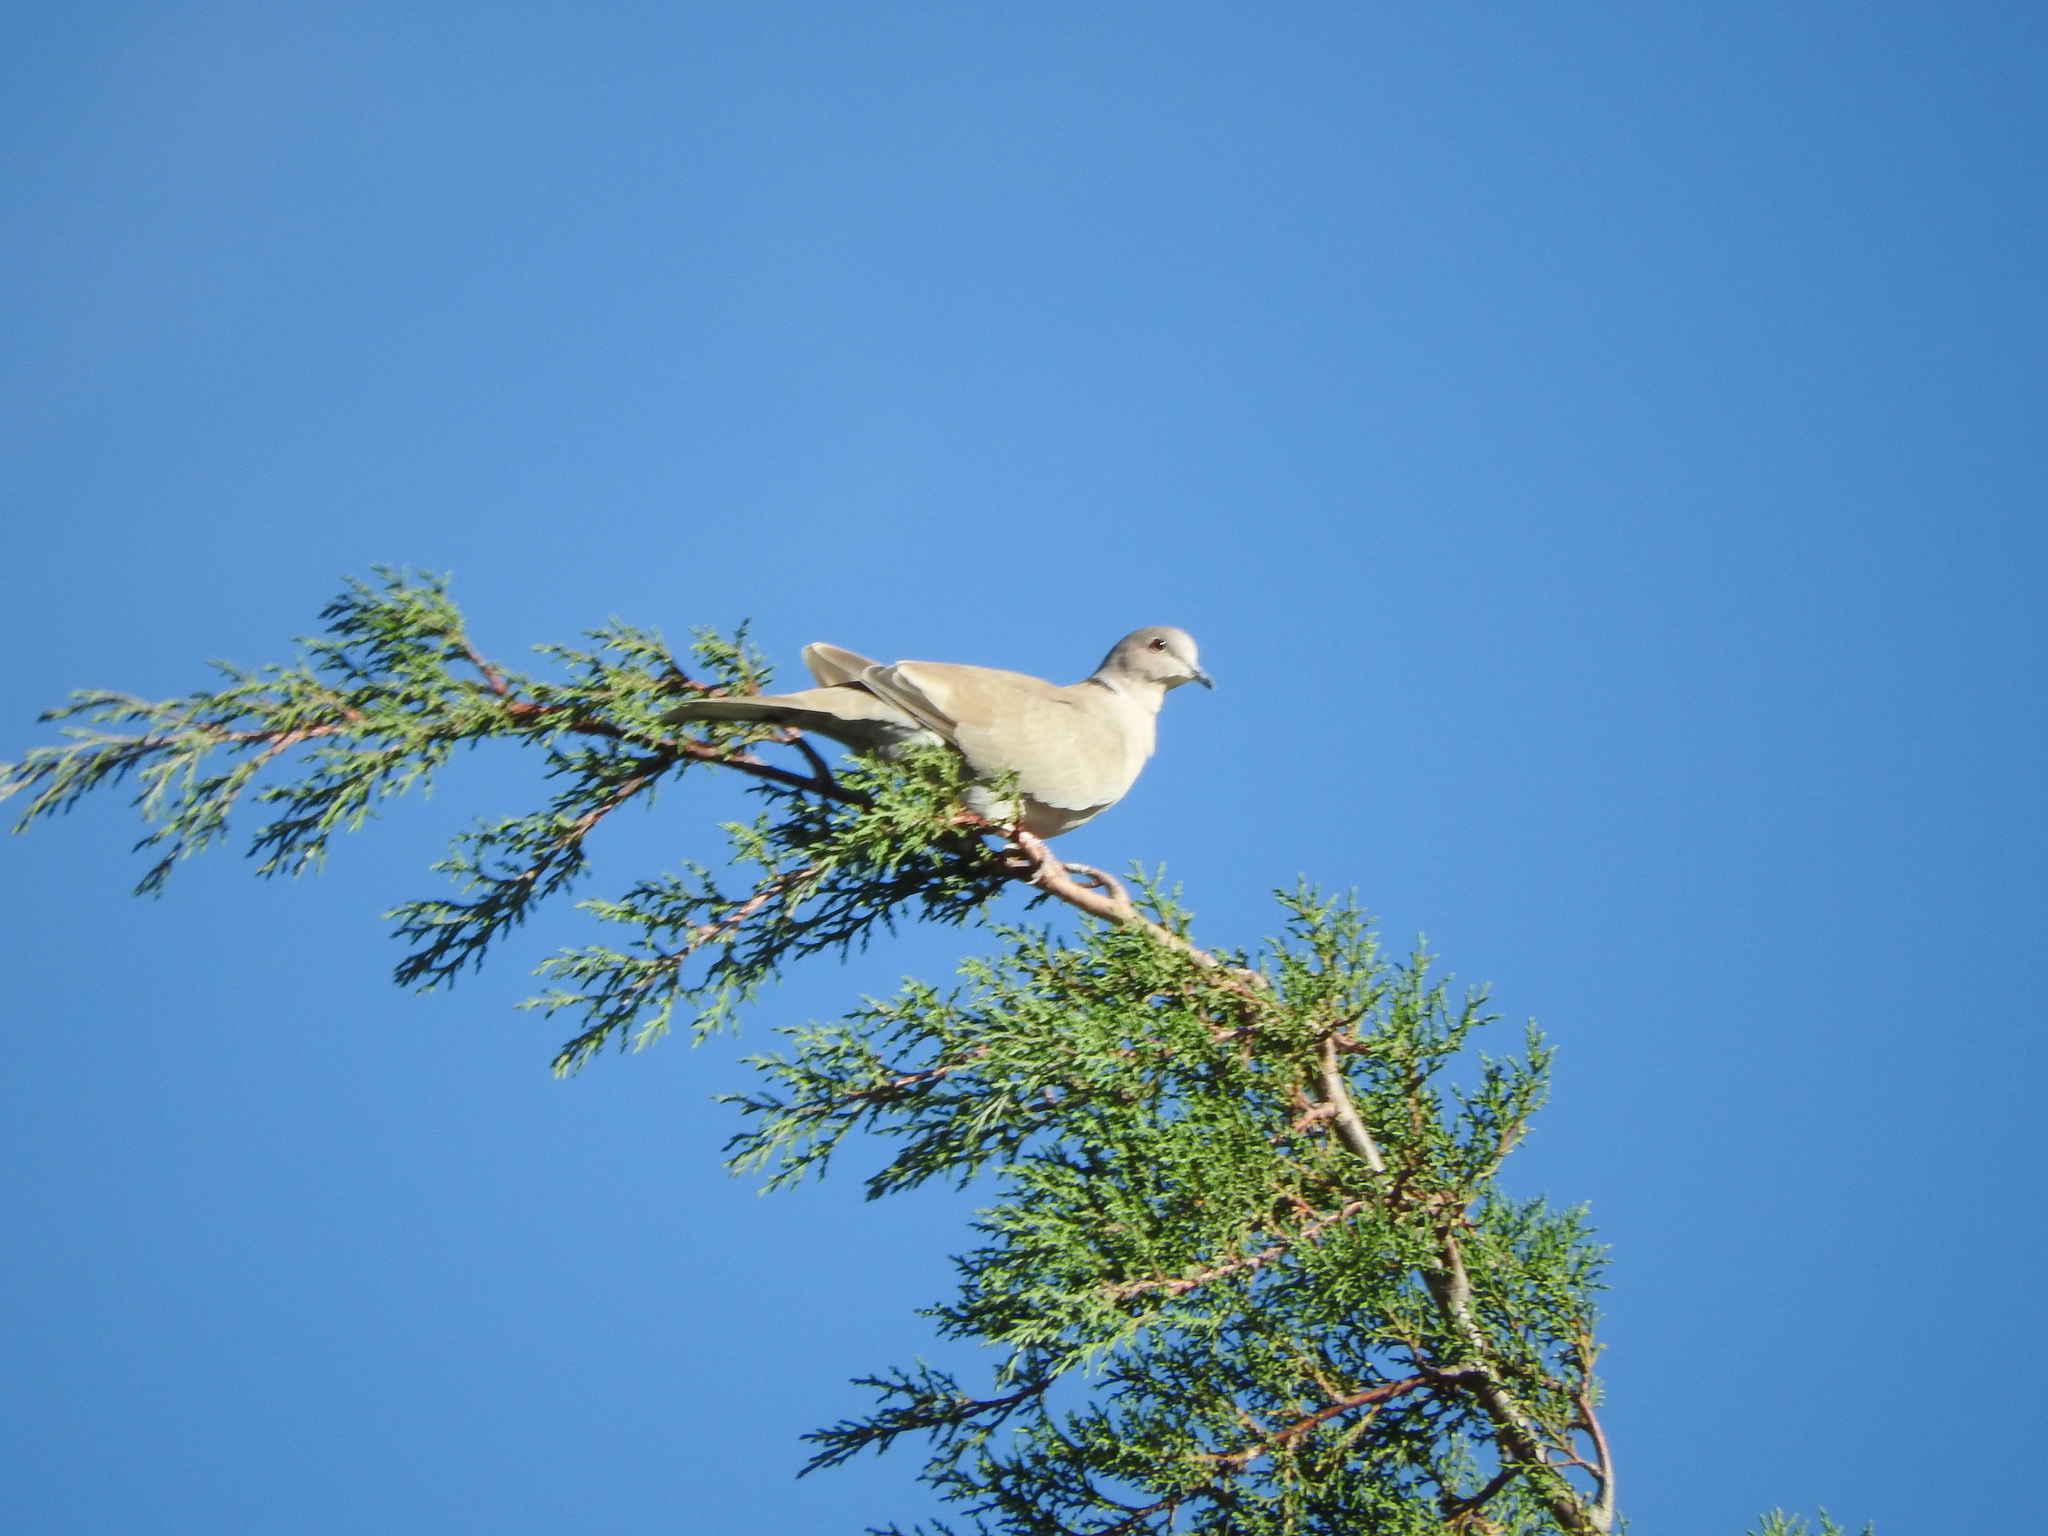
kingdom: Animalia
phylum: Chordata
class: Aves
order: Columbiformes
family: Columbidae
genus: Streptopelia
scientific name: Streptopelia decaocto
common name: Eurasian collared dove
